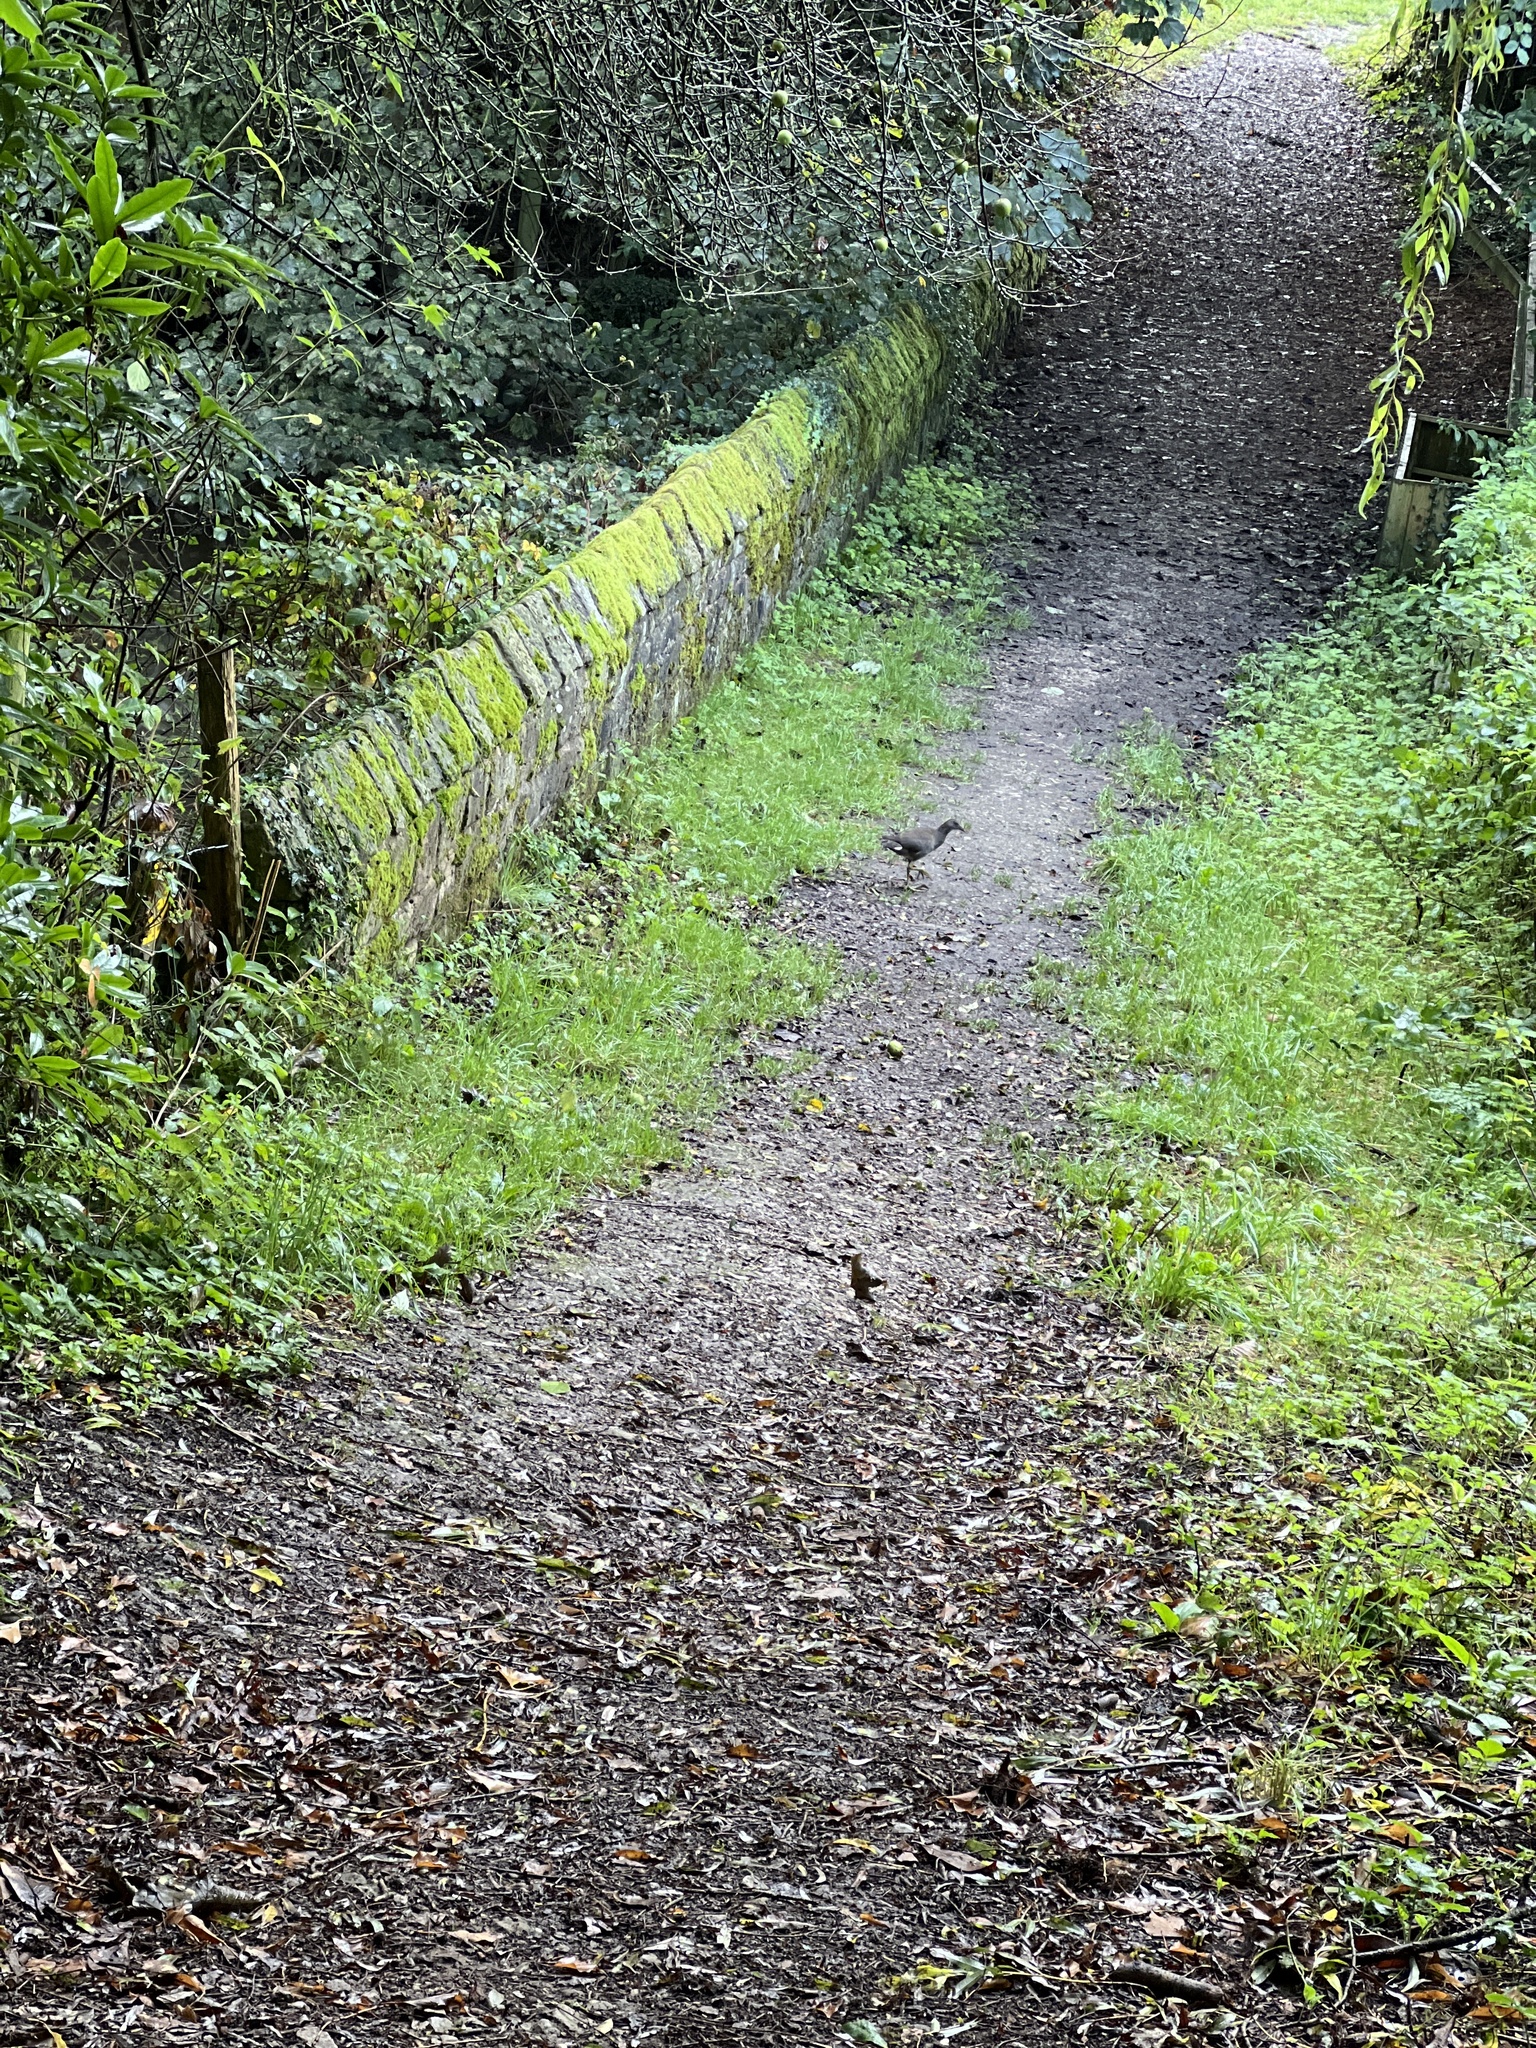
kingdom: Animalia
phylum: Chordata
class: Aves
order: Gruiformes
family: Rallidae
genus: Gallinula
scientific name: Gallinula chloropus
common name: Common moorhen
